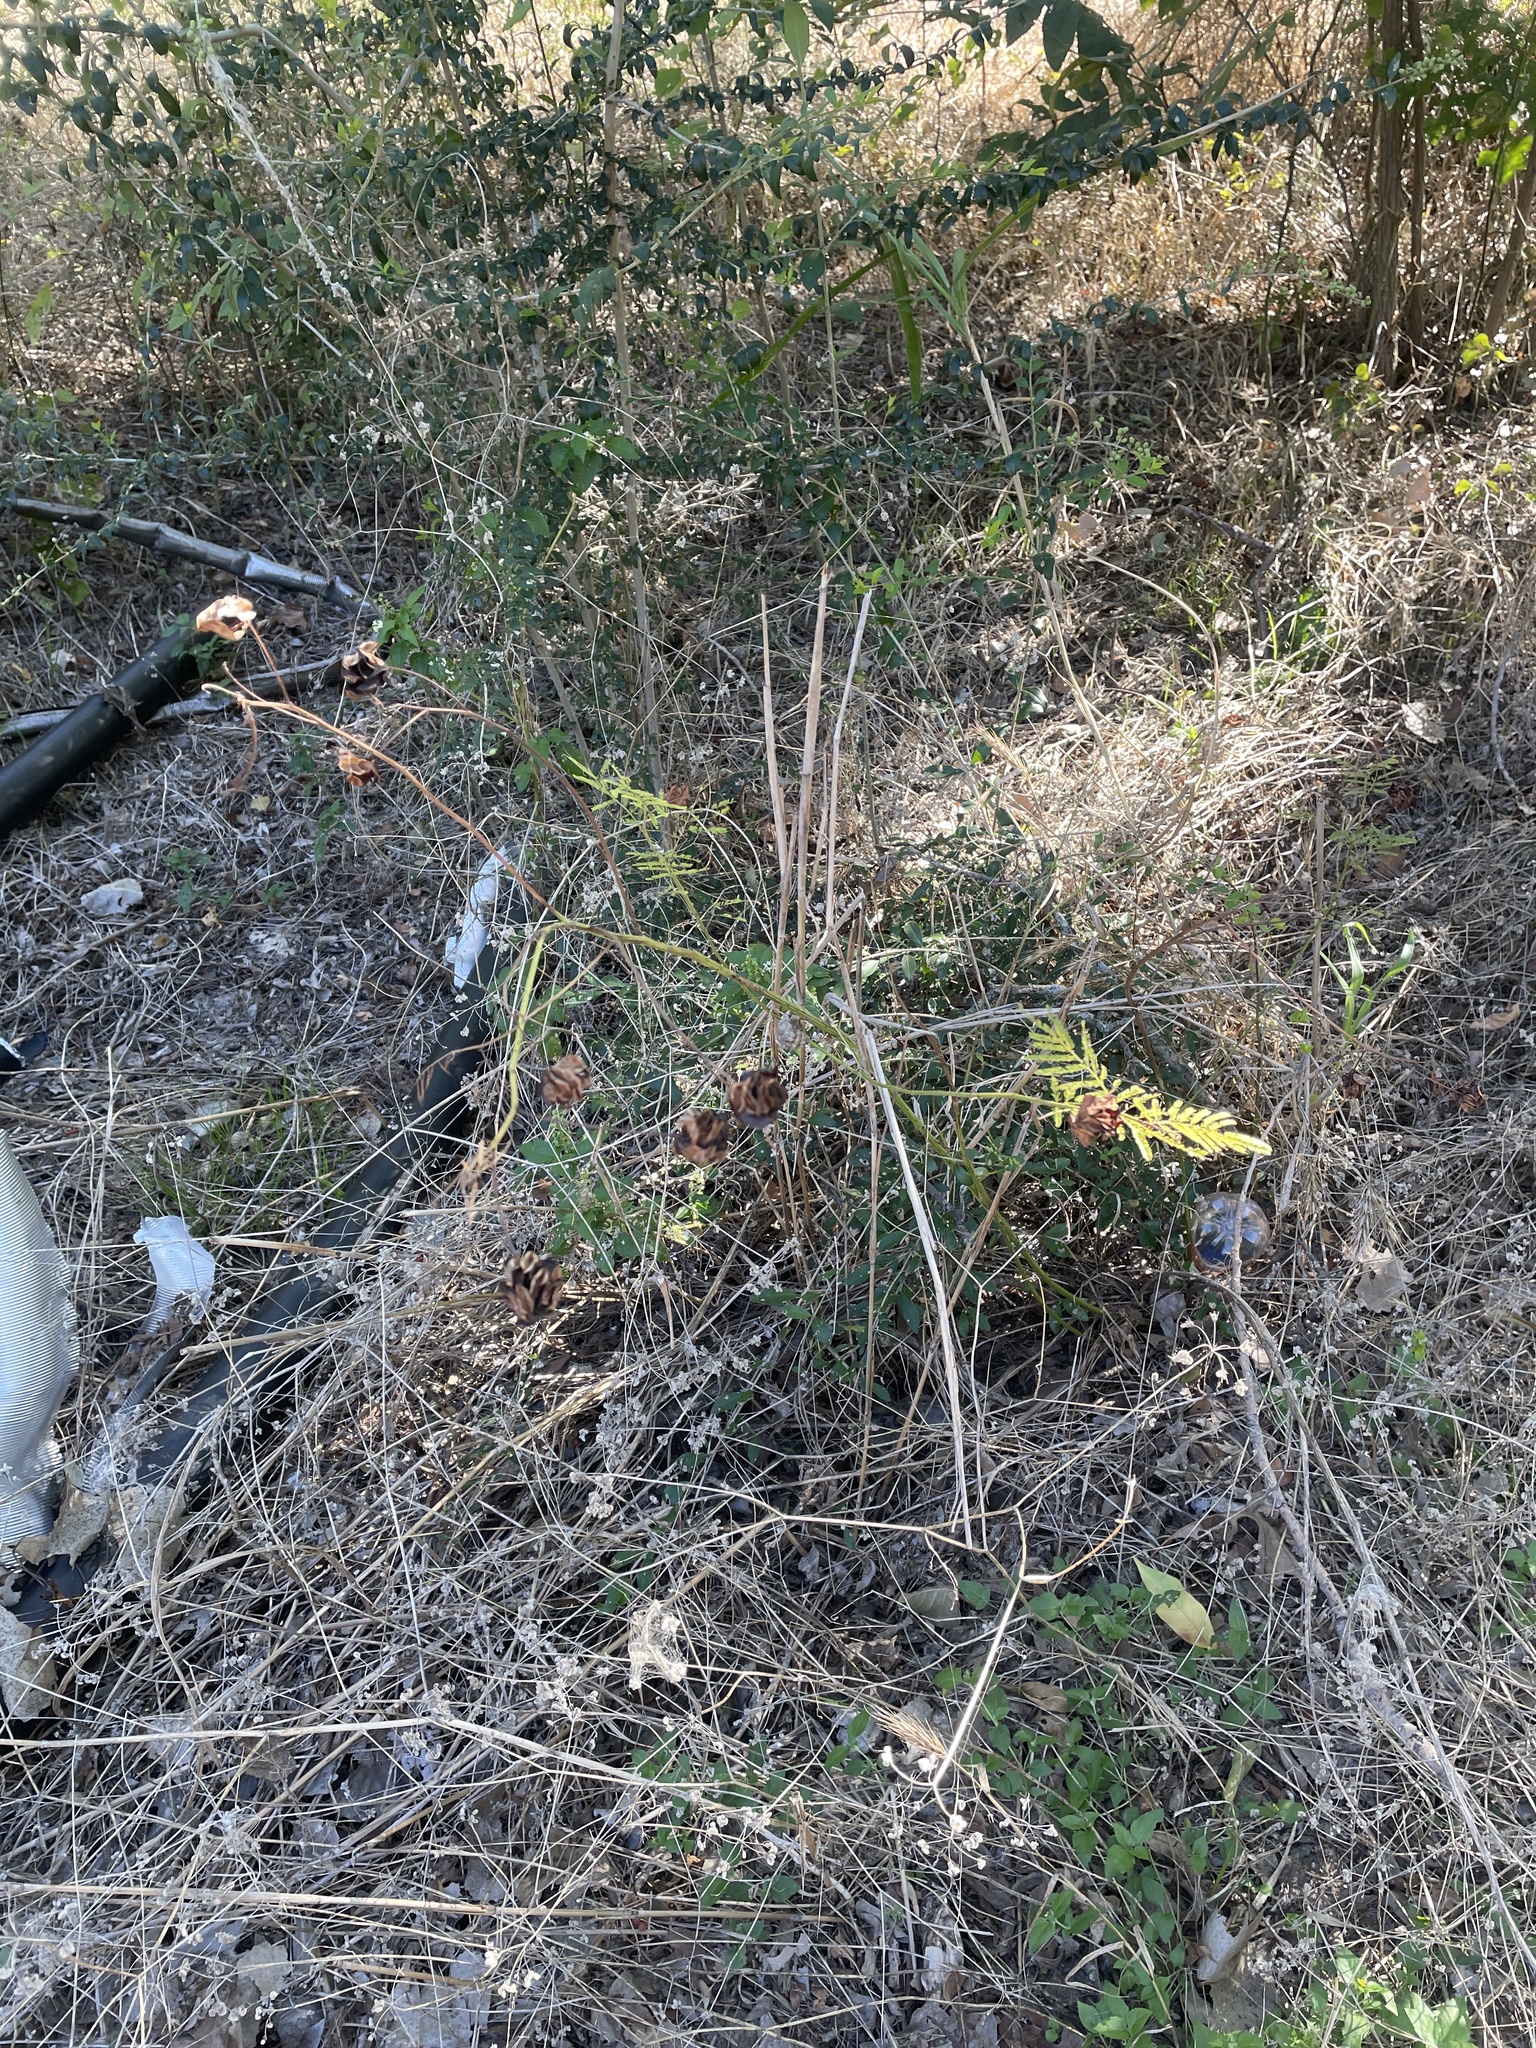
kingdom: Plantae
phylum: Tracheophyta
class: Magnoliopsida
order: Fabales
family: Fabaceae
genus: Desmanthus
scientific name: Desmanthus illinoensis
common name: Illinois bundle-flower
